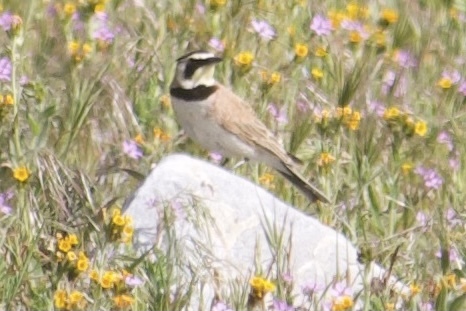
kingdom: Animalia
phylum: Chordata
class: Aves
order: Passeriformes
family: Alaudidae
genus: Eremophila
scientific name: Eremophila alpestris
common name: Horned lark
